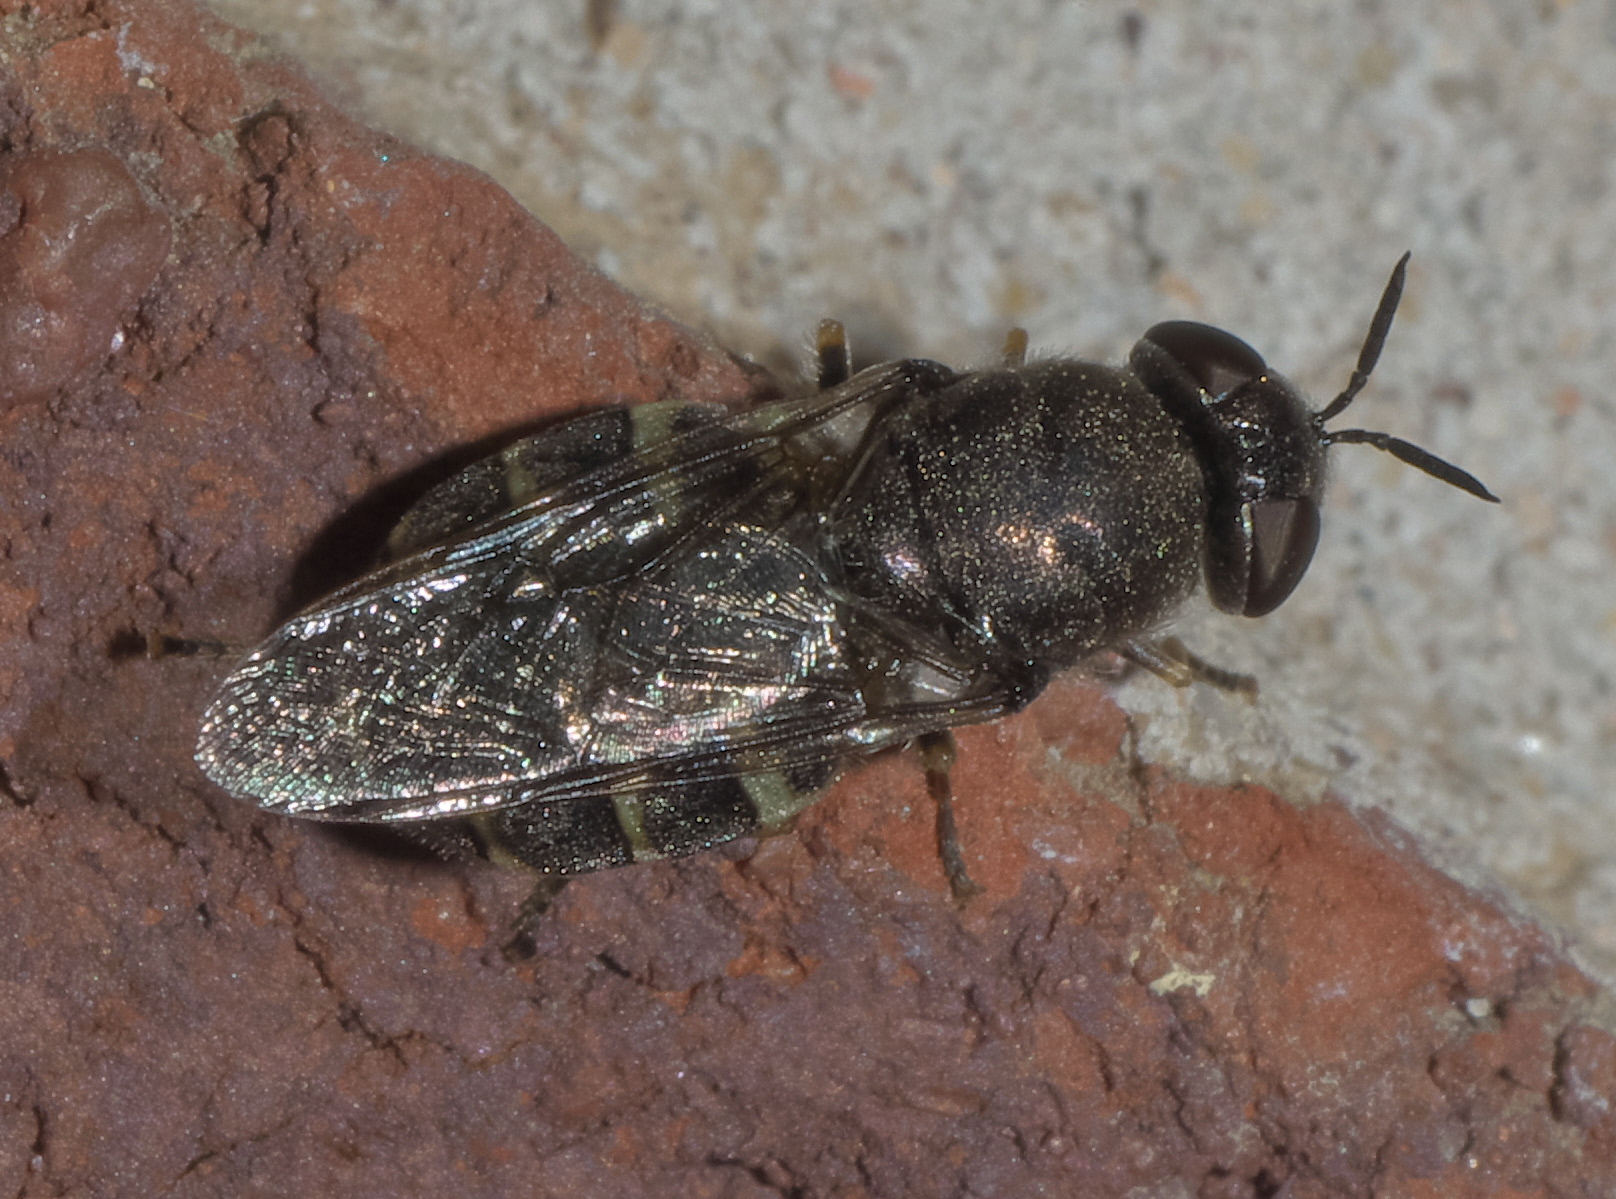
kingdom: Animalia
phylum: Arthropoda
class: Insecta
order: Diptera
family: Stratiomyidae
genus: Odontomyia
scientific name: Odontomyia interrupta
